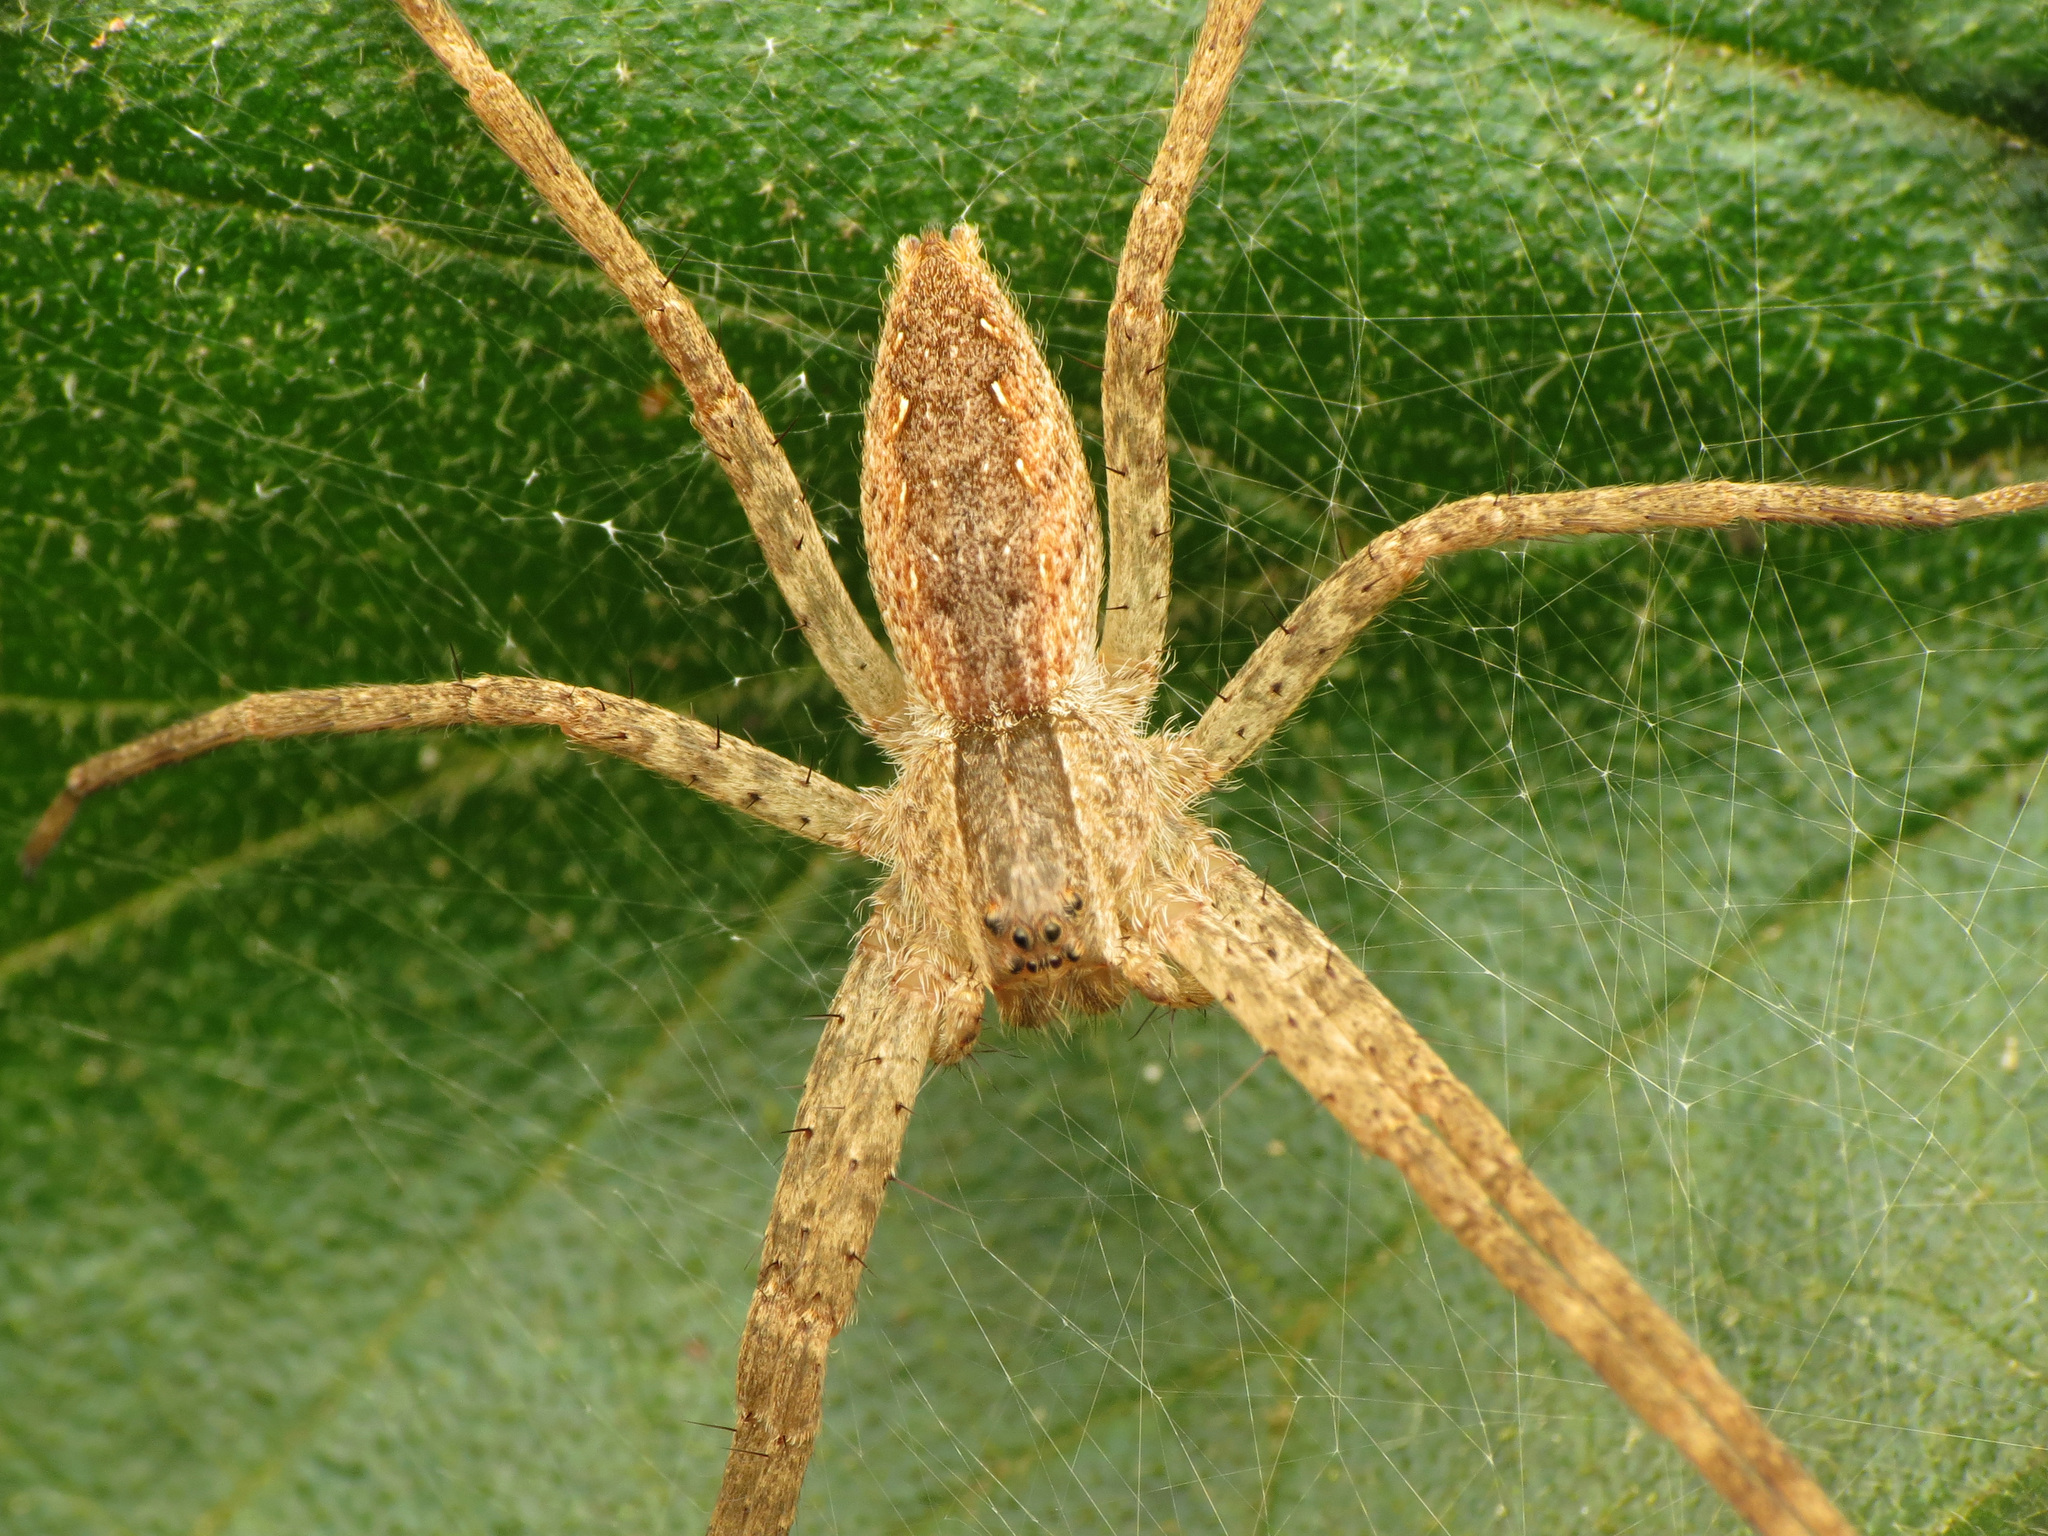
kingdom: Animalia
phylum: Arthropoda
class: Arachnida
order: Araneae
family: Pisauridae
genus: Pisaurina
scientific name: Pisaurina mira
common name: American nursery web spider
